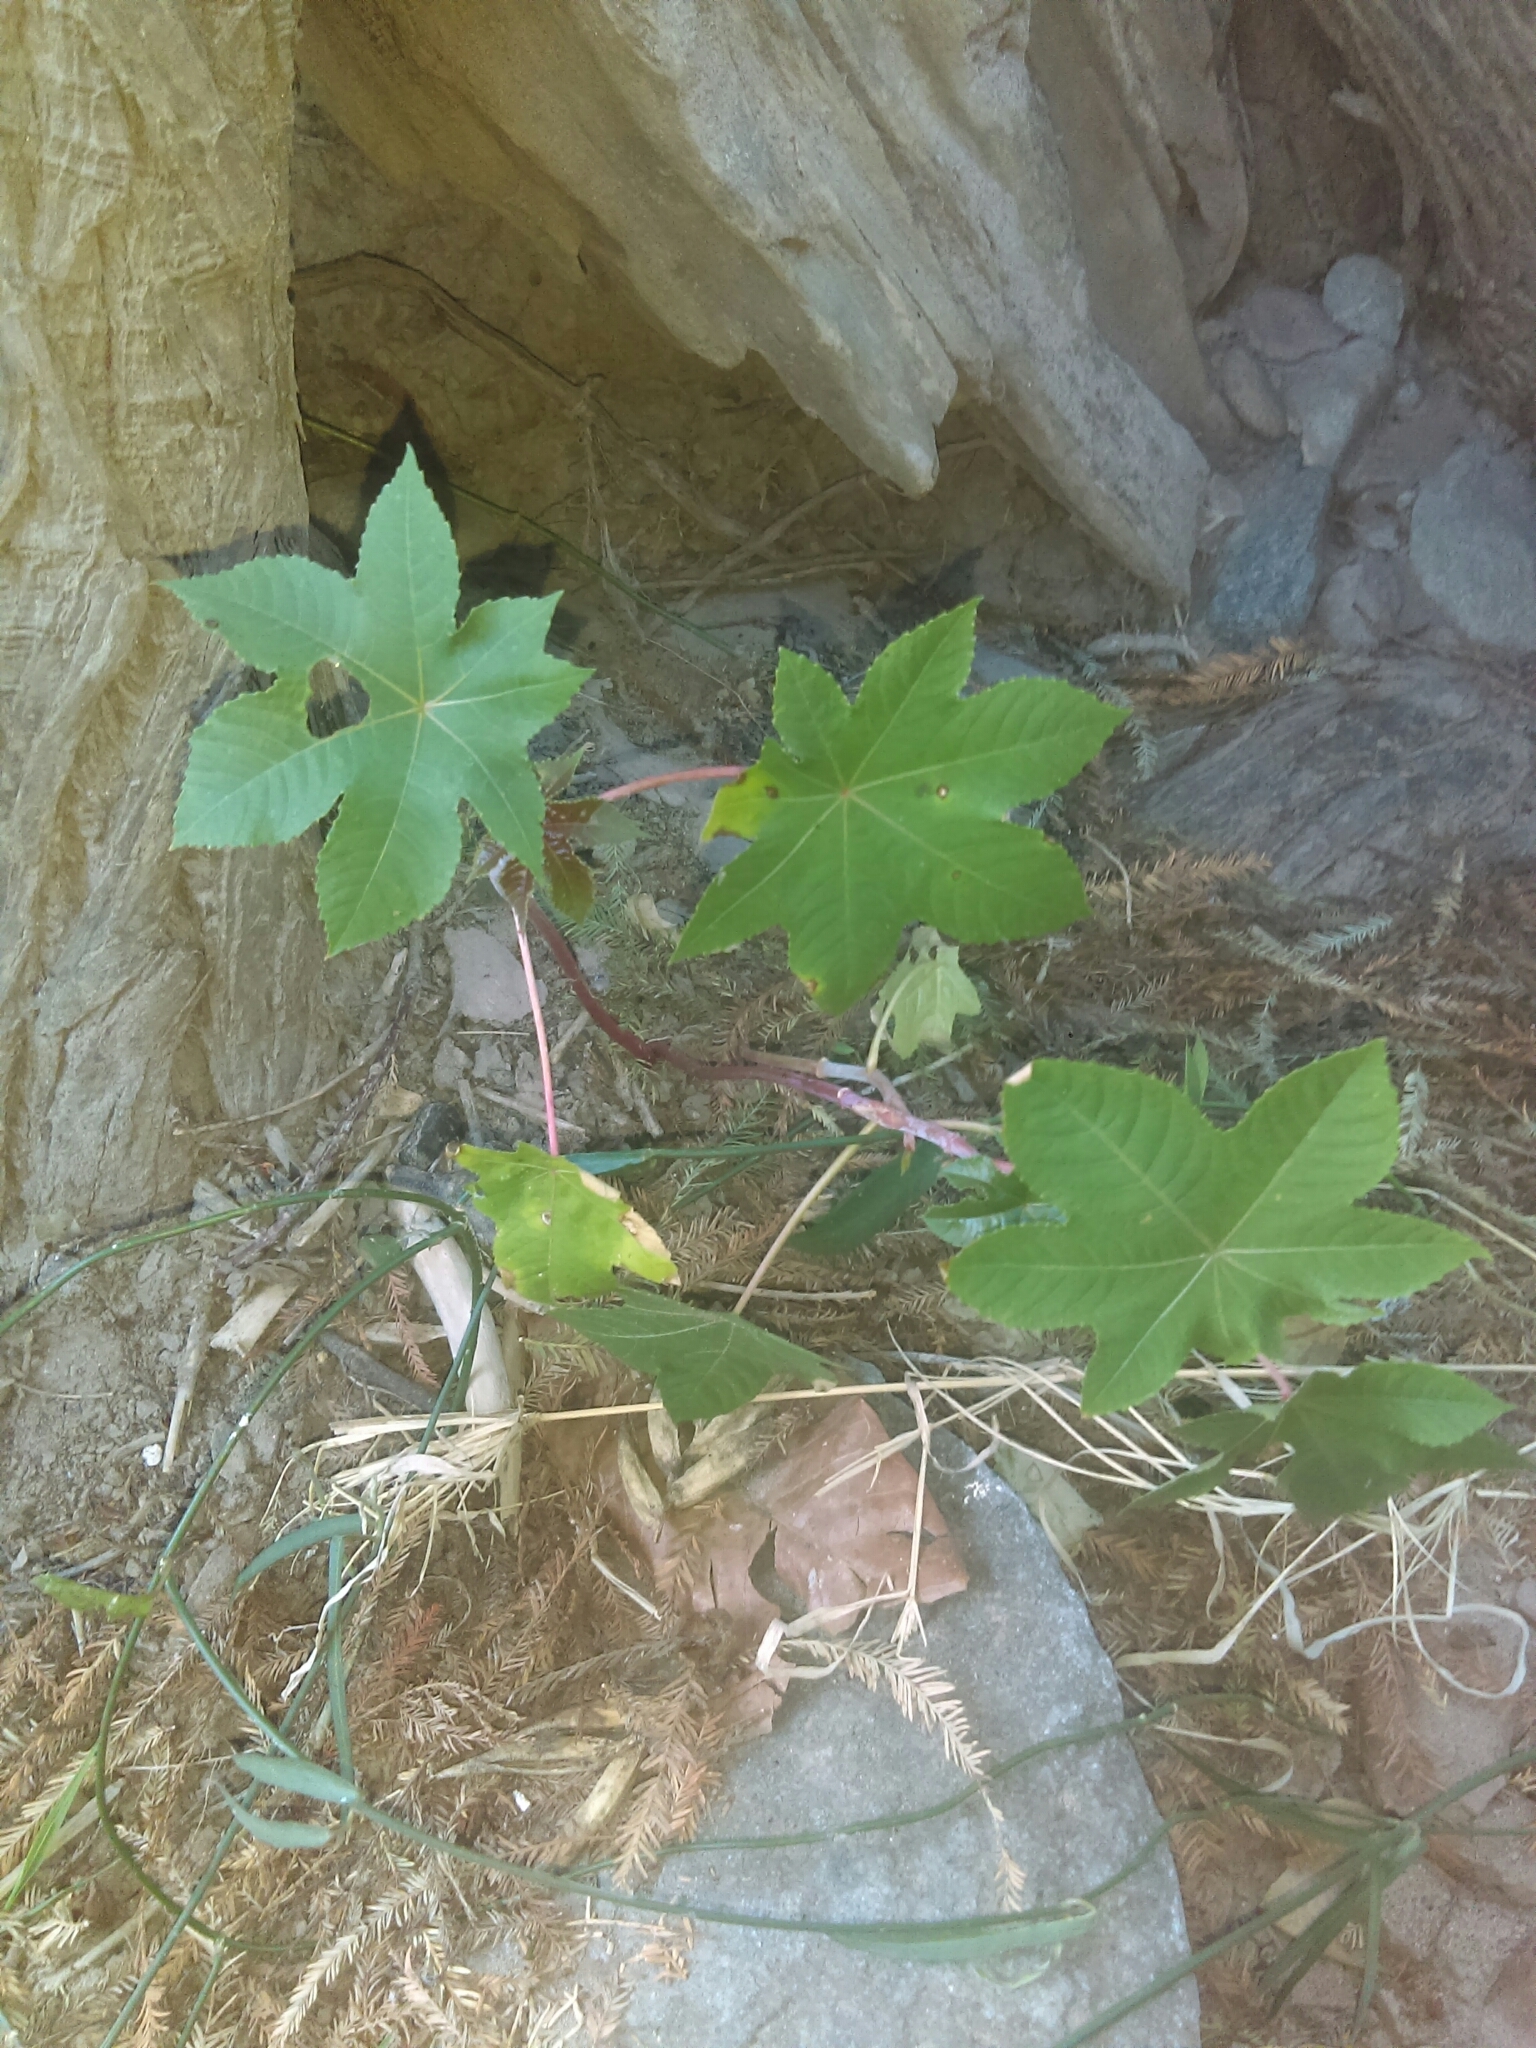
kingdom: Plantae
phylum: Tracheophyta
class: Magnoliopsida
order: Malpighiales
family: Euphorbiaceae
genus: Ricinus
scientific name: Ricinus communis
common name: Castor-oil-plant
